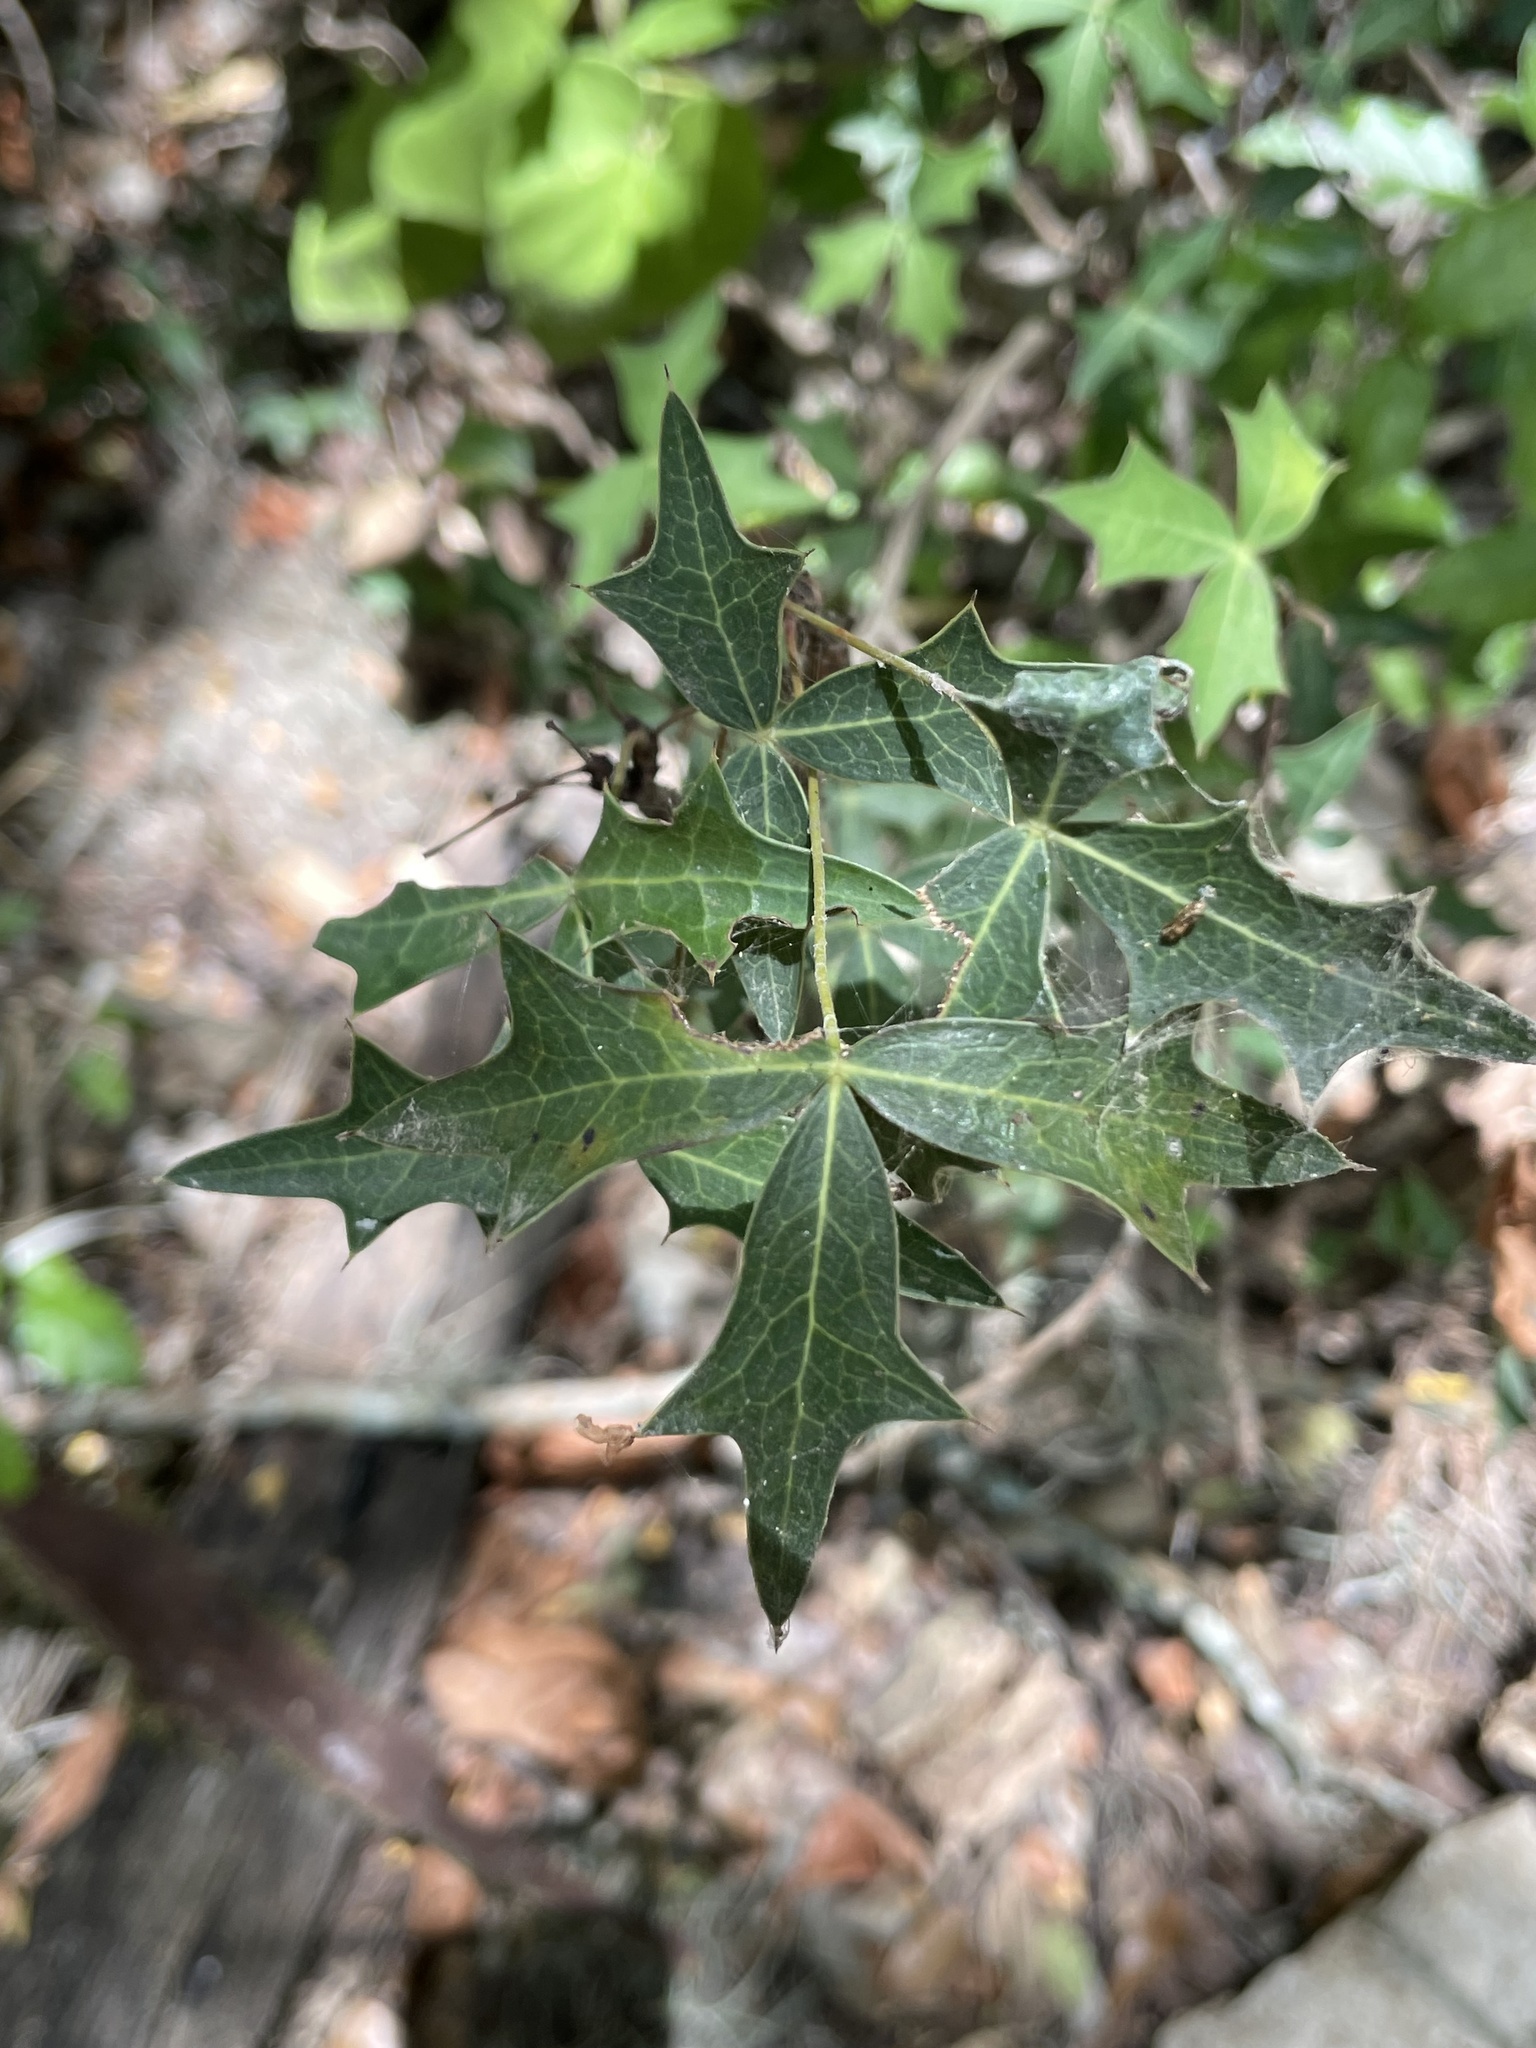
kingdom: Plantae
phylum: Tracheophyta
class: Magnoliopsida
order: Ranunculales
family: Berberidaceae
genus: Alloberberis
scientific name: Alloberberis trifoliolata
